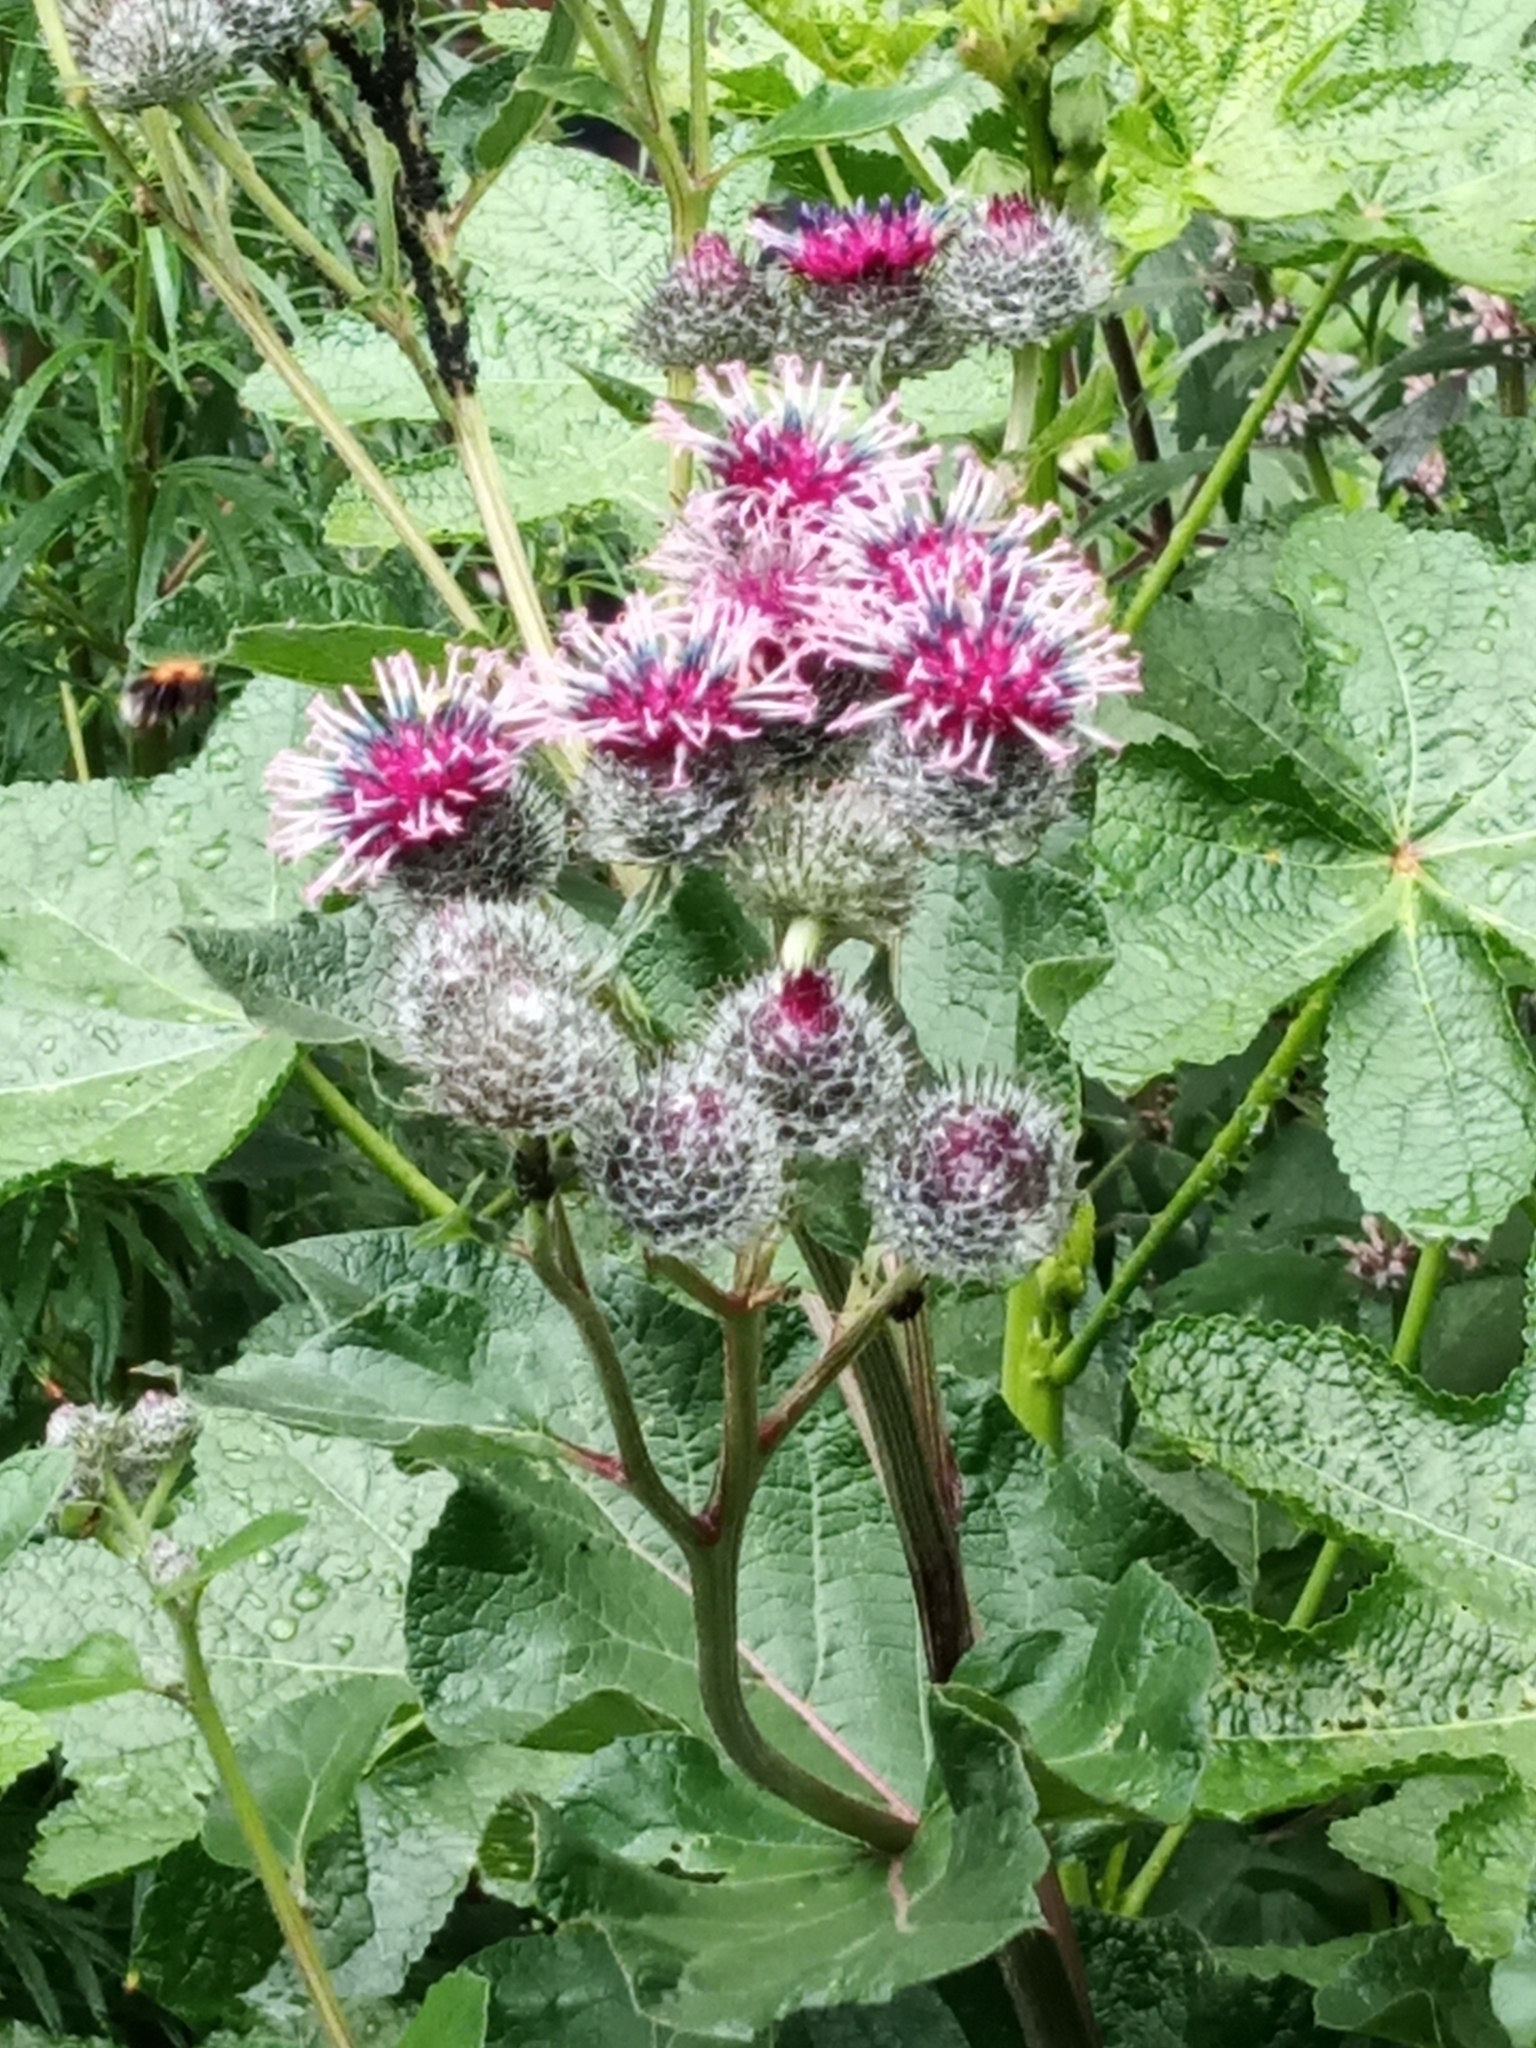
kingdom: Plantae
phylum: Tracheophyta
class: Magnoliopsida
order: Asterales
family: Asteraceae
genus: Arctium
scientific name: Arctium tomentosum
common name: Woolly burdock
